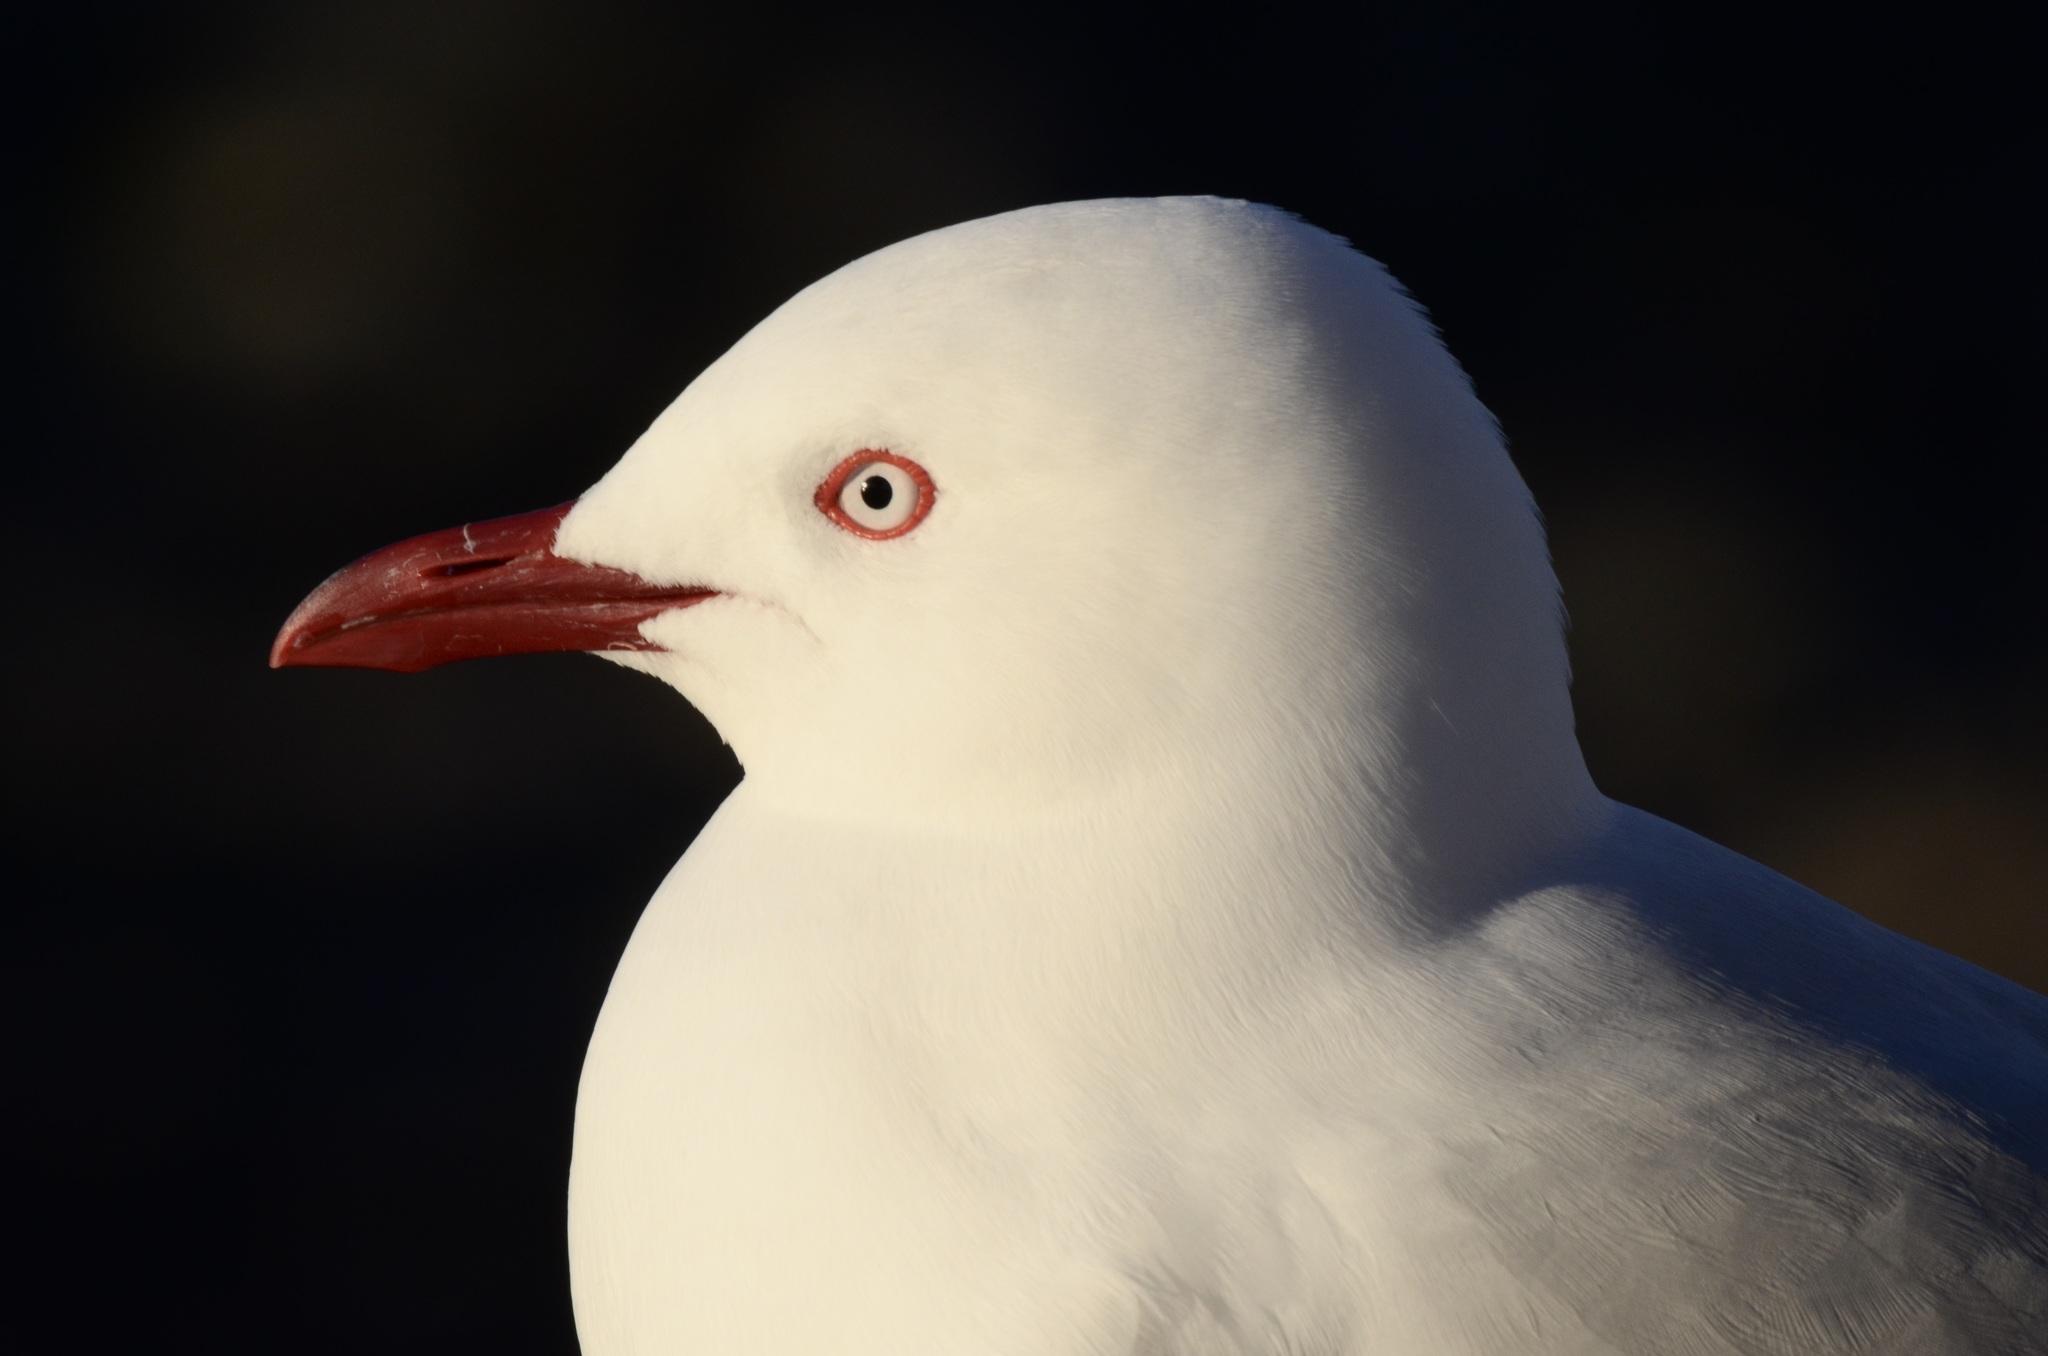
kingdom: Animalia
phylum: Chordata
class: Aves
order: Charadriiformes
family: Laridae
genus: Chroicocephalus
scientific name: Chroicocephalus novaehollandiae
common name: Silver gull
